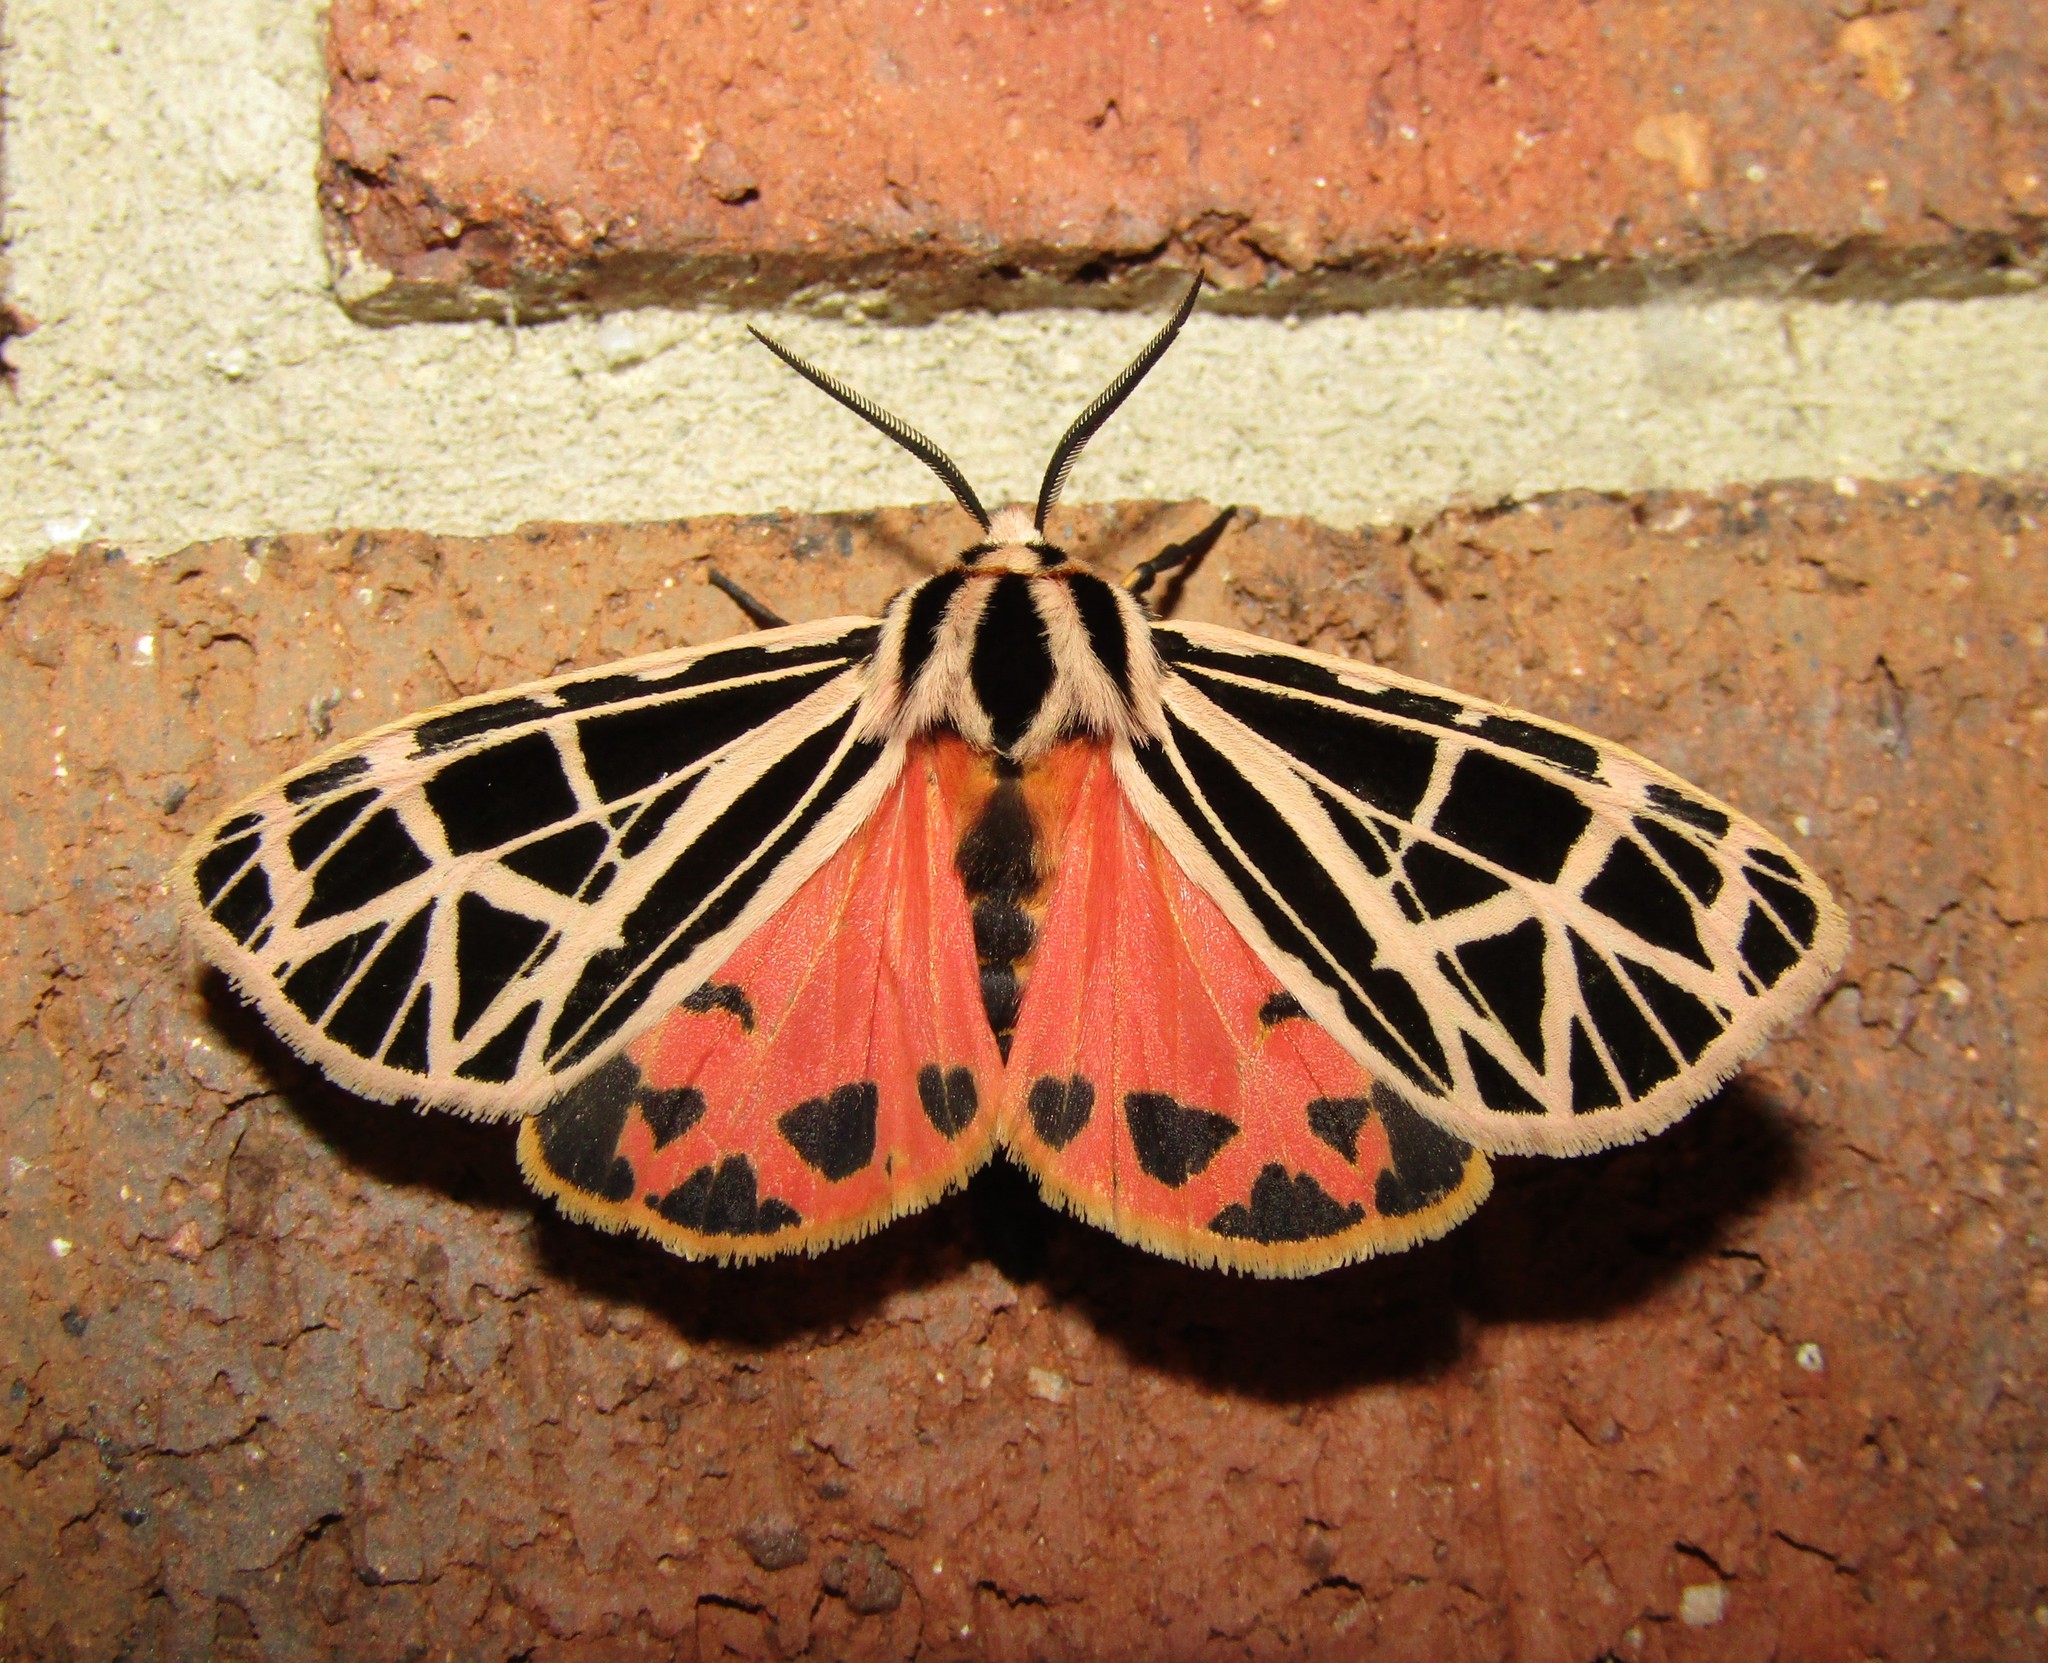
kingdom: Animalia
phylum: Arthropoda
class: Insecta
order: Lepidoptera
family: Erebidae
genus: Grammia
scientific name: Grammia parthenice
